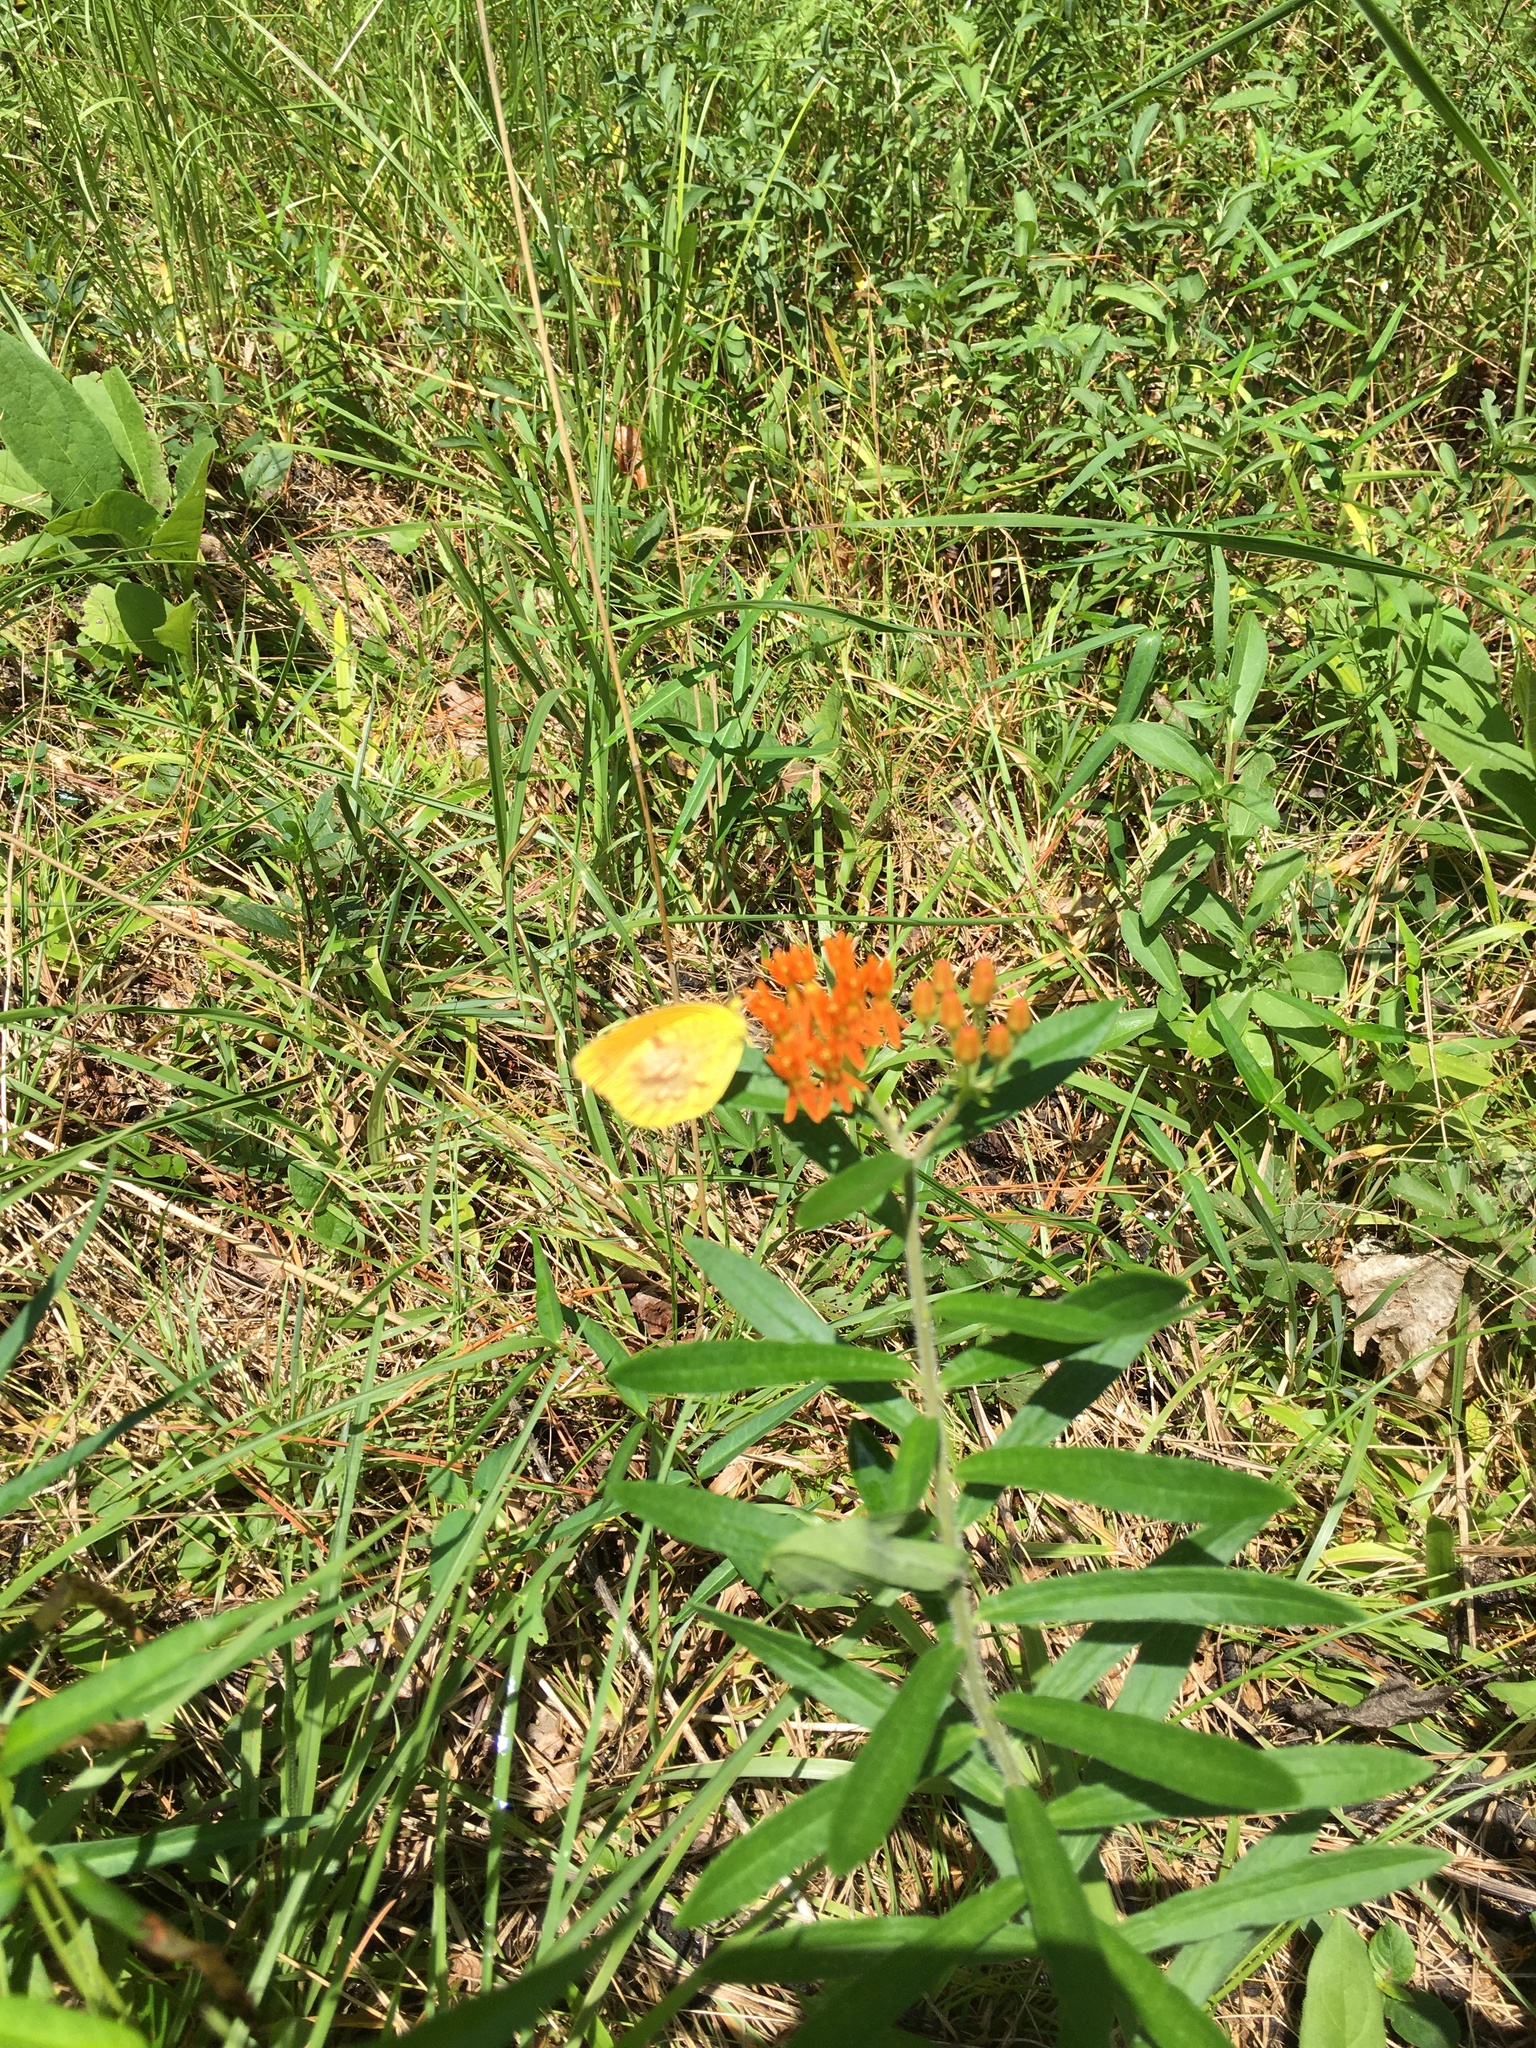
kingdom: Plantae
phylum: Tracheophyta
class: Magnoliopsida
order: Gentianales
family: Apocynaceae
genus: Asclepias
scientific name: Asclepias tuberosa
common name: Butterfly milkweed
